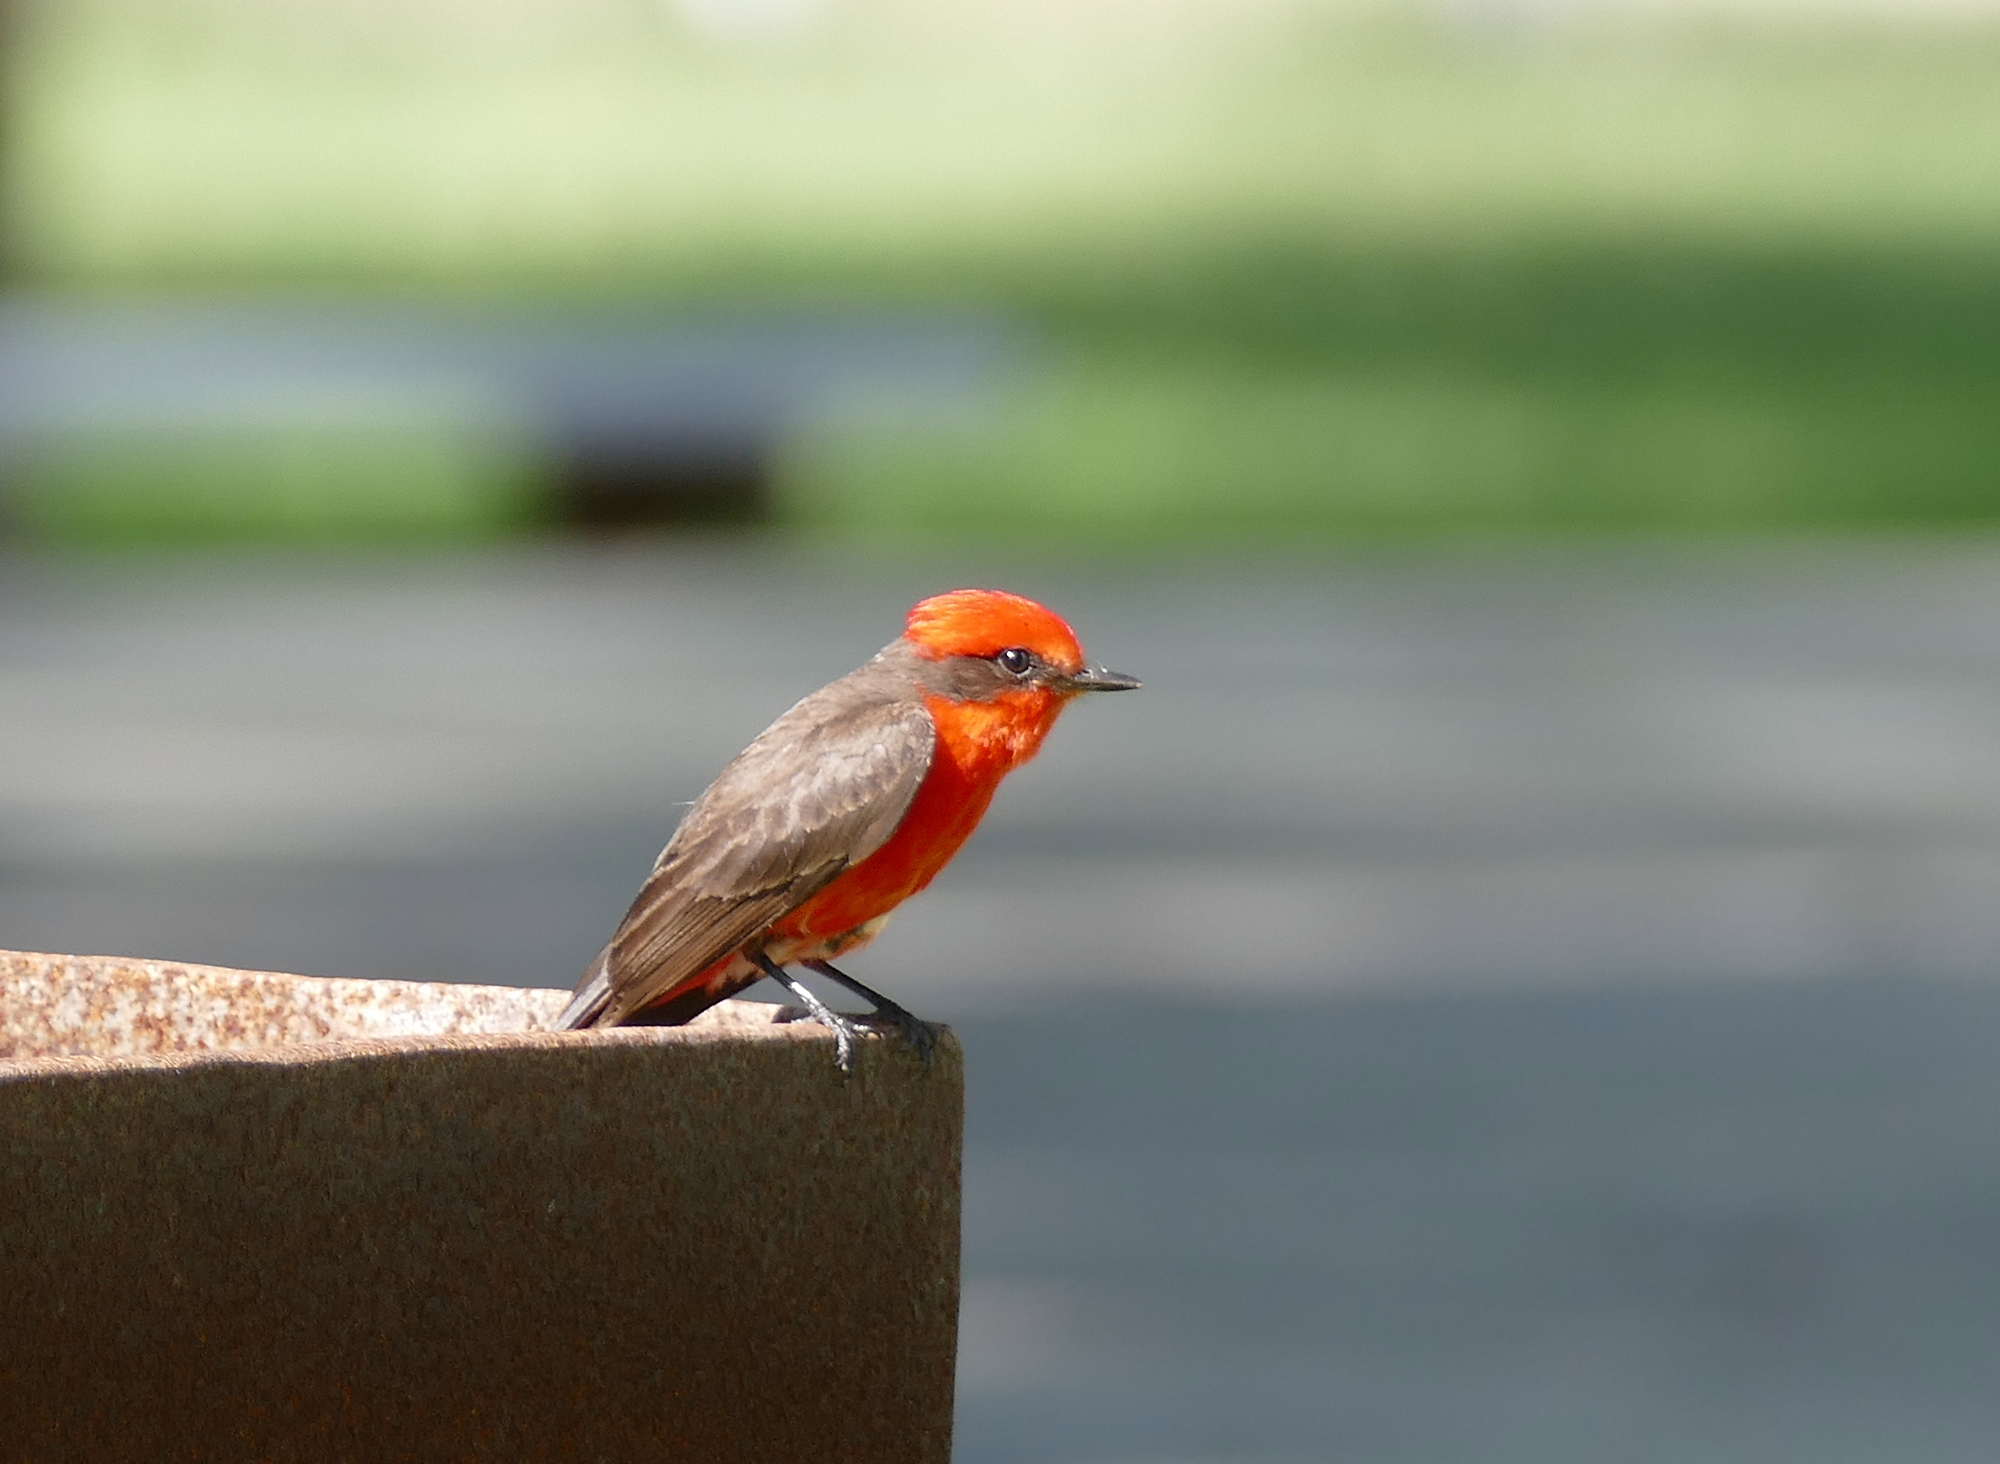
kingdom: Animalia
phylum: Chordata
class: Aves
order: Passeriformes
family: Tyrannidae
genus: Pyrocephalus
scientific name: Pyrocephalus rubinus
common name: Vermilion flycatcher
